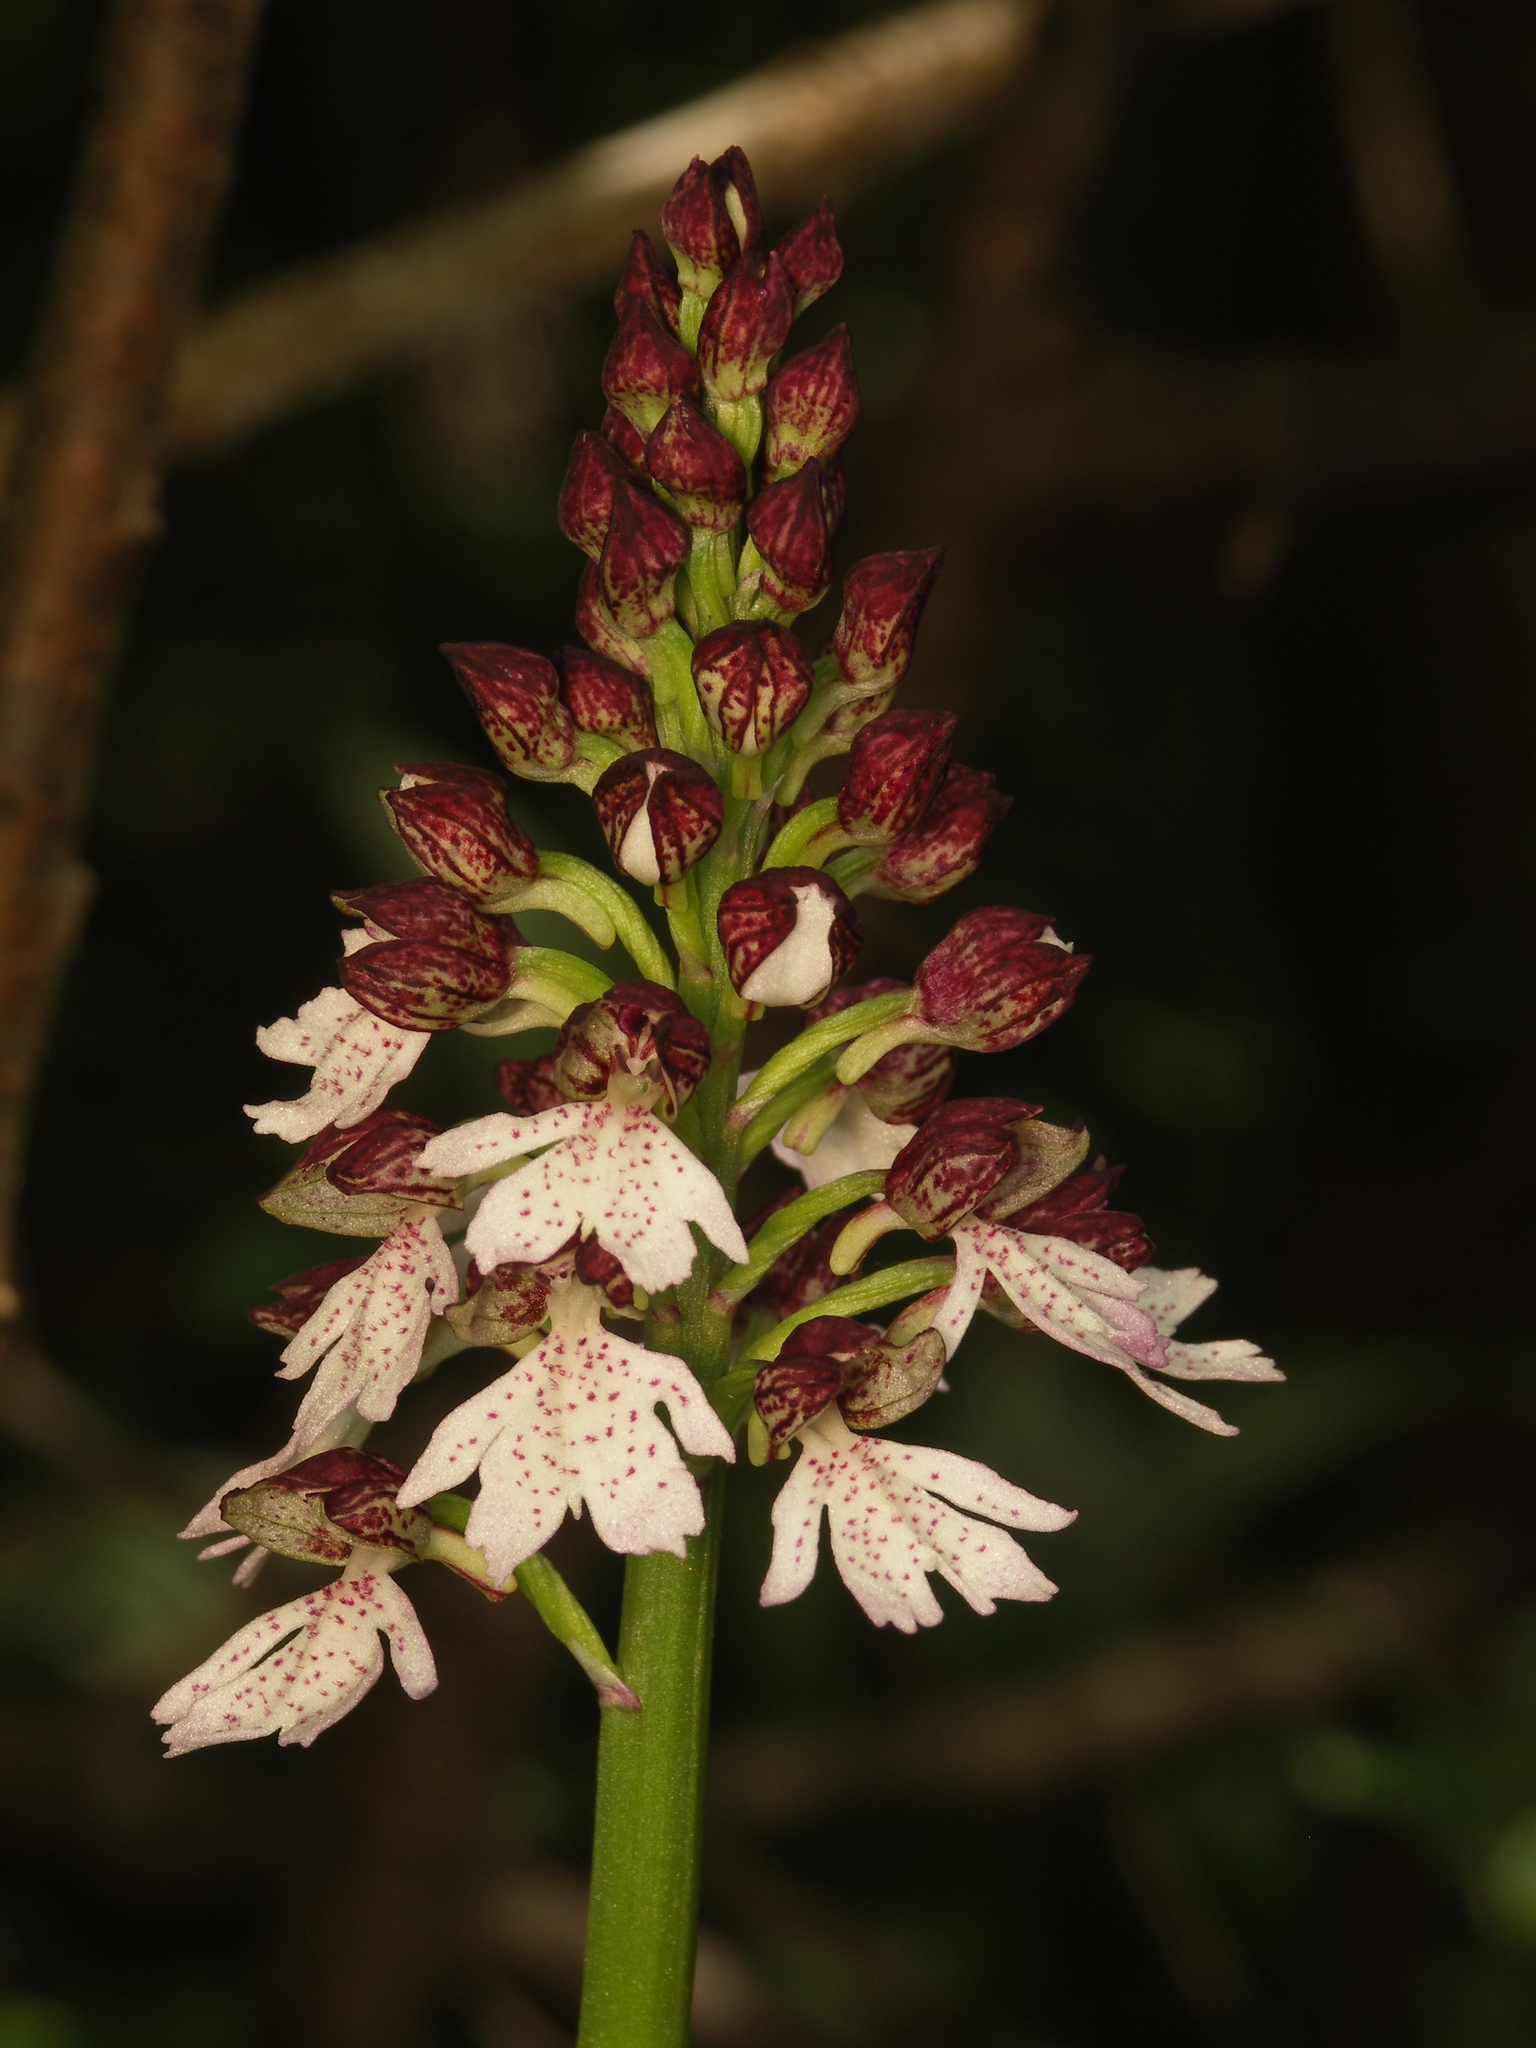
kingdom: Plantae
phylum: Tracheophyta
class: Liliopsida
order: Asparagales
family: Orchidaceae
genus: Orchis
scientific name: Orchis purpurea
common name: Lady orchid
